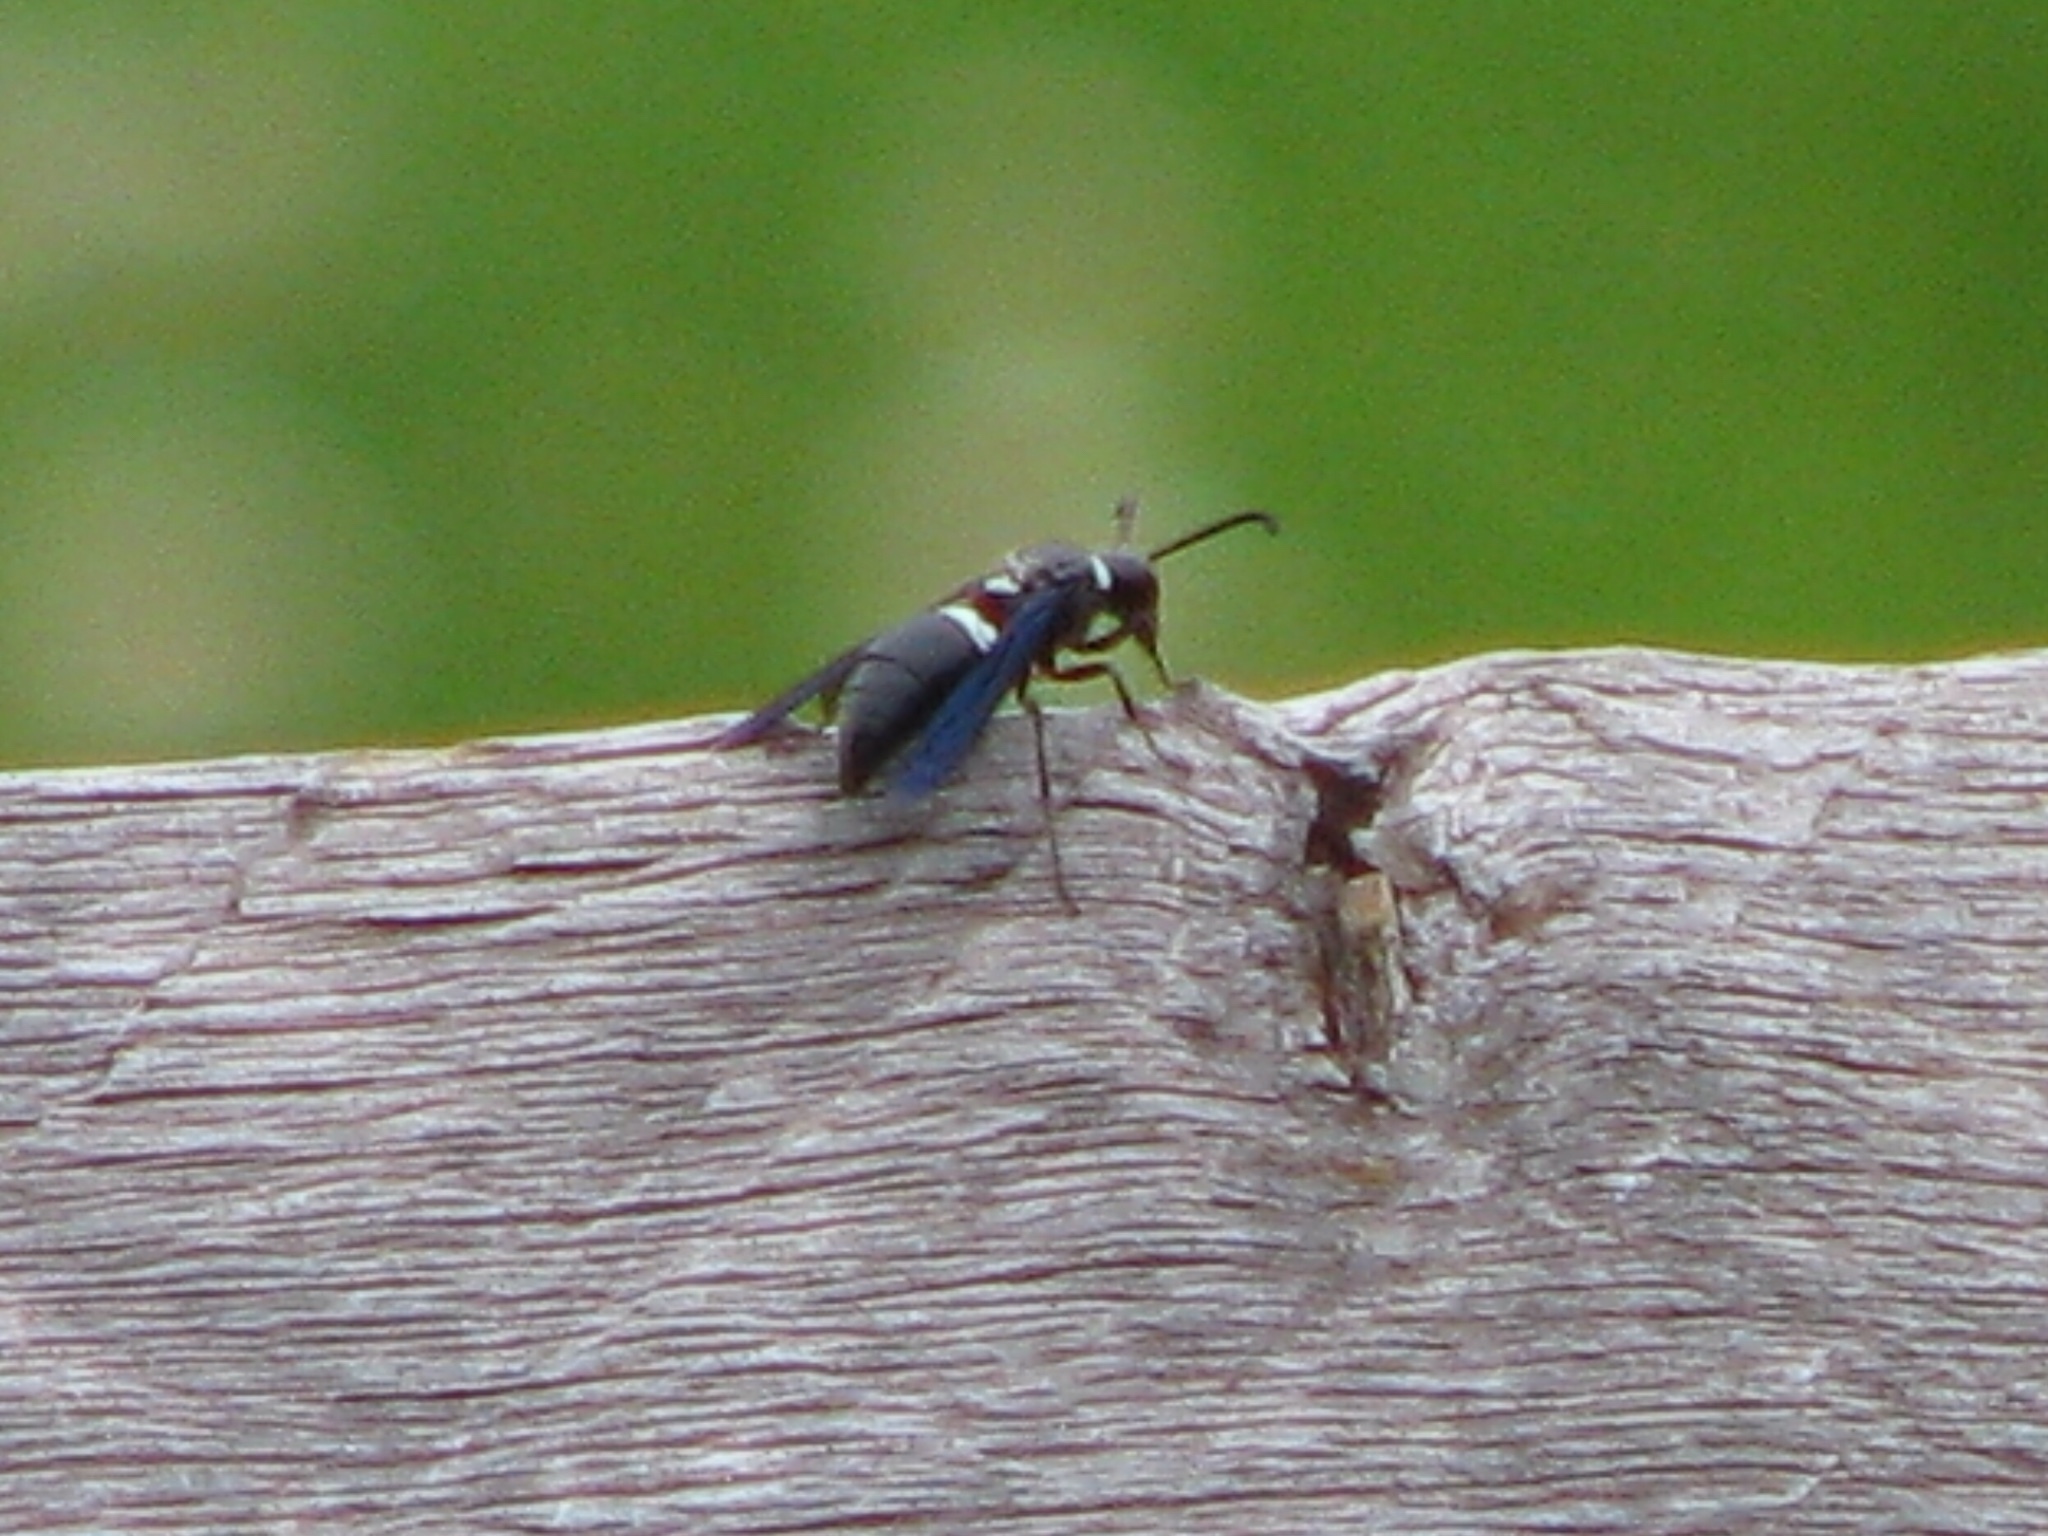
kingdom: Animalia
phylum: Arthropoda
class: Insecta
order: Hymenoptera
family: Eumenidae
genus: Monobia
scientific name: Monobia quadridens
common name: Four-toothed mason wasp
